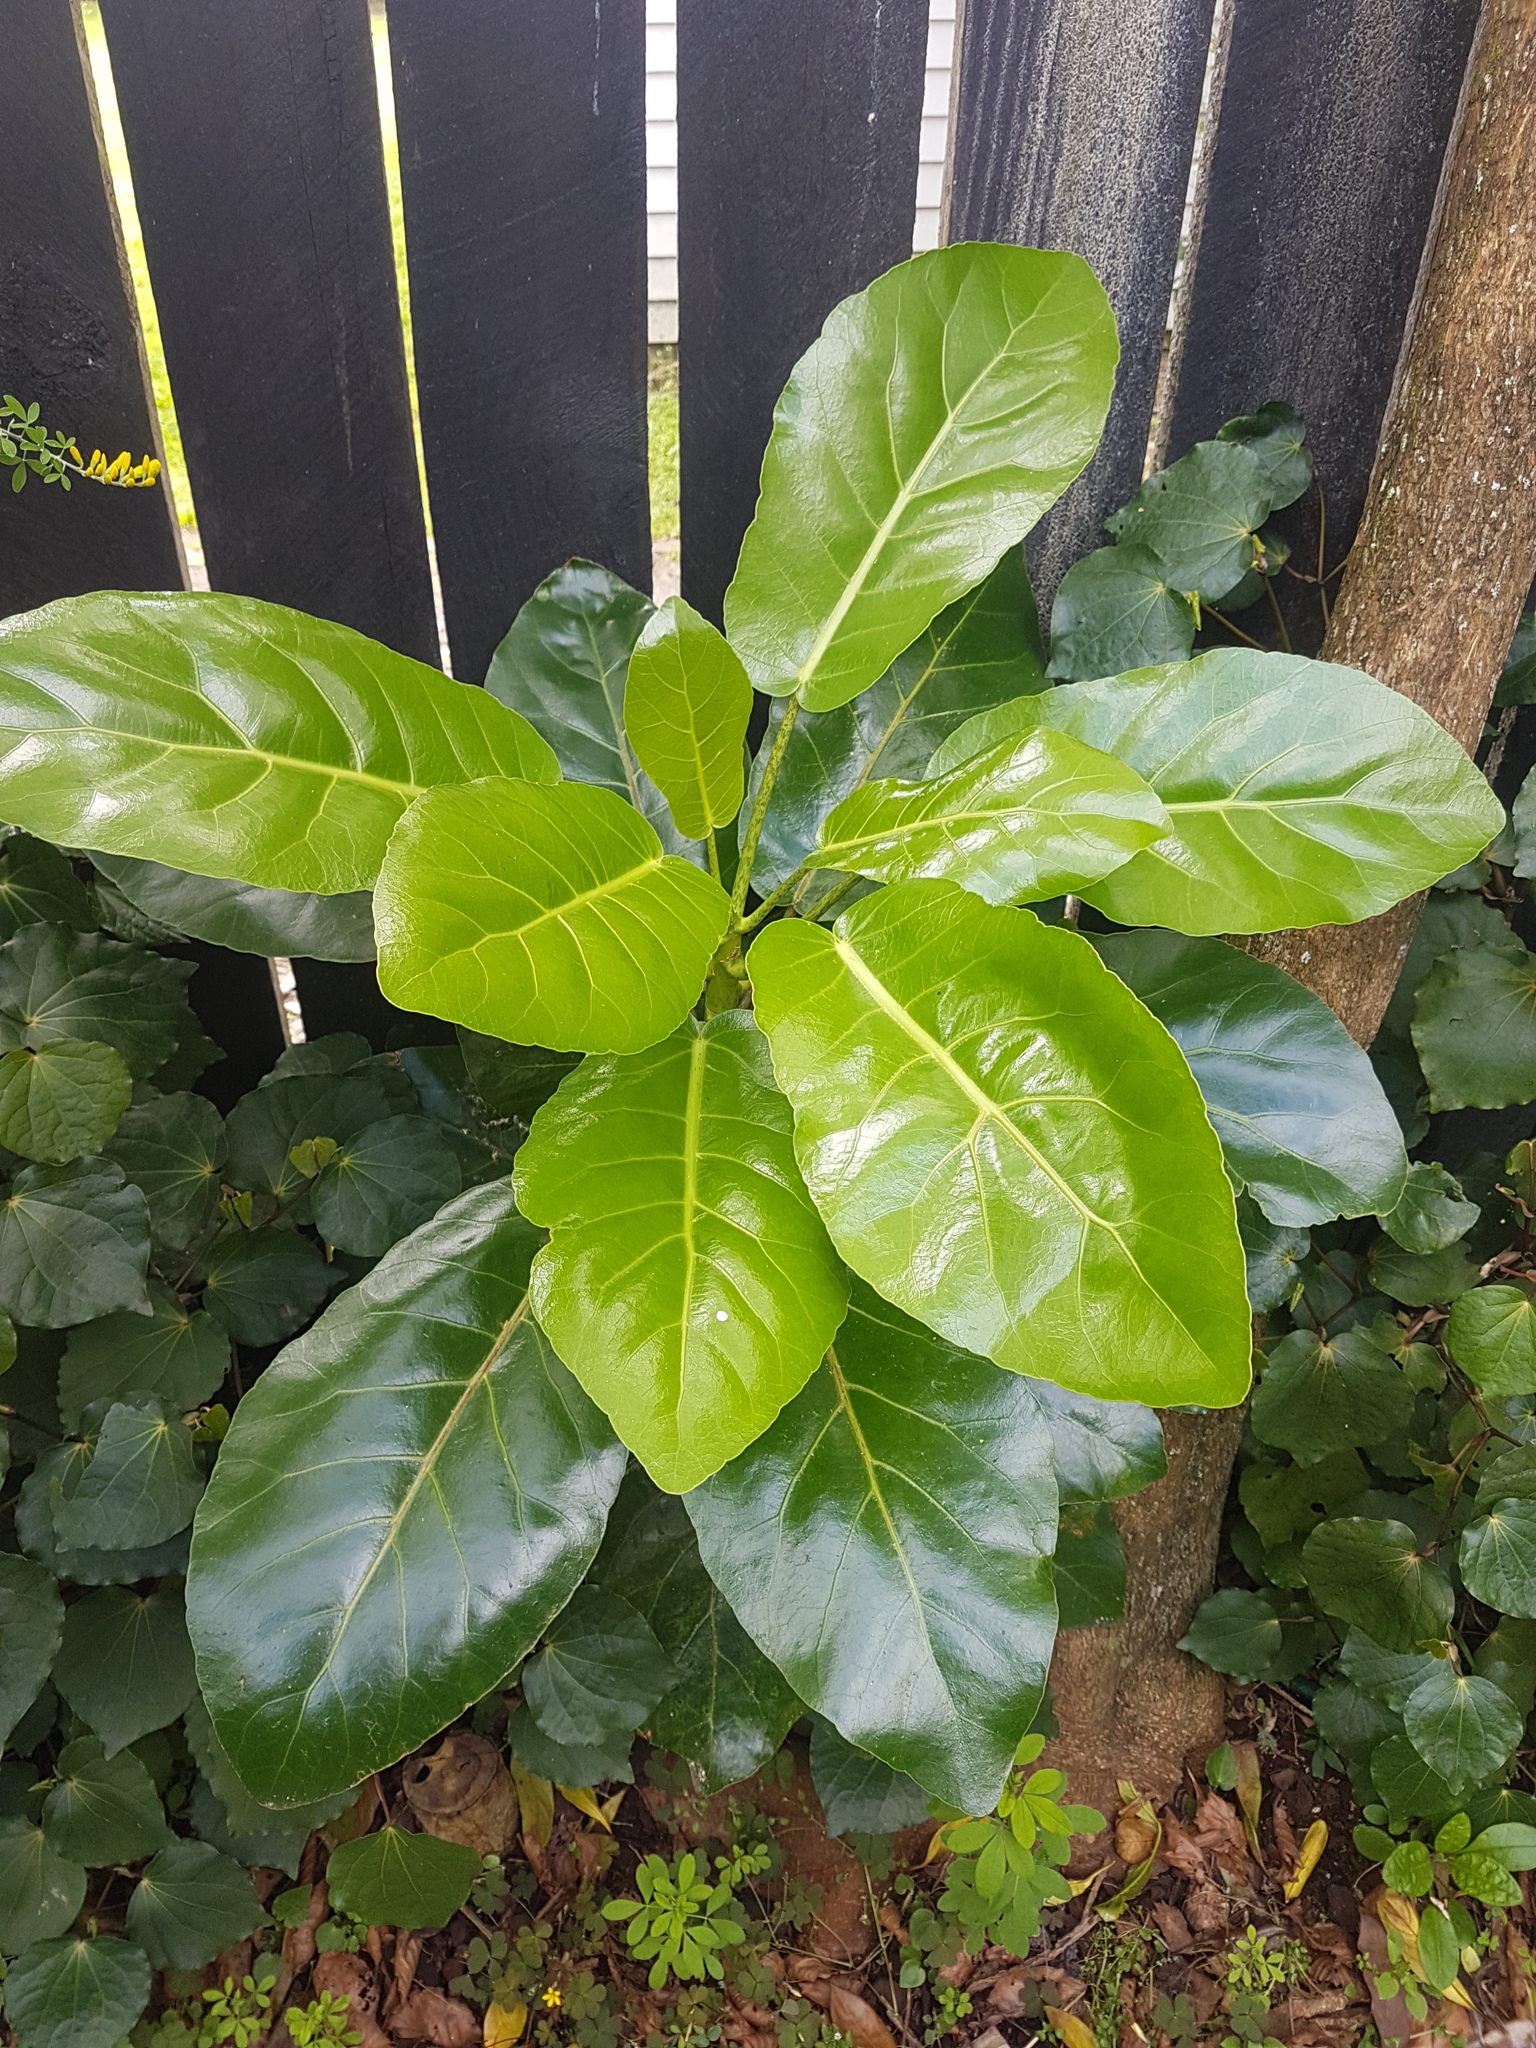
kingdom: Plantae
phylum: Tracheophyta
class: Magnoliopsida
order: Apiales
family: Araliaceae
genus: Meryta
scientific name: Meryta sinclairii
